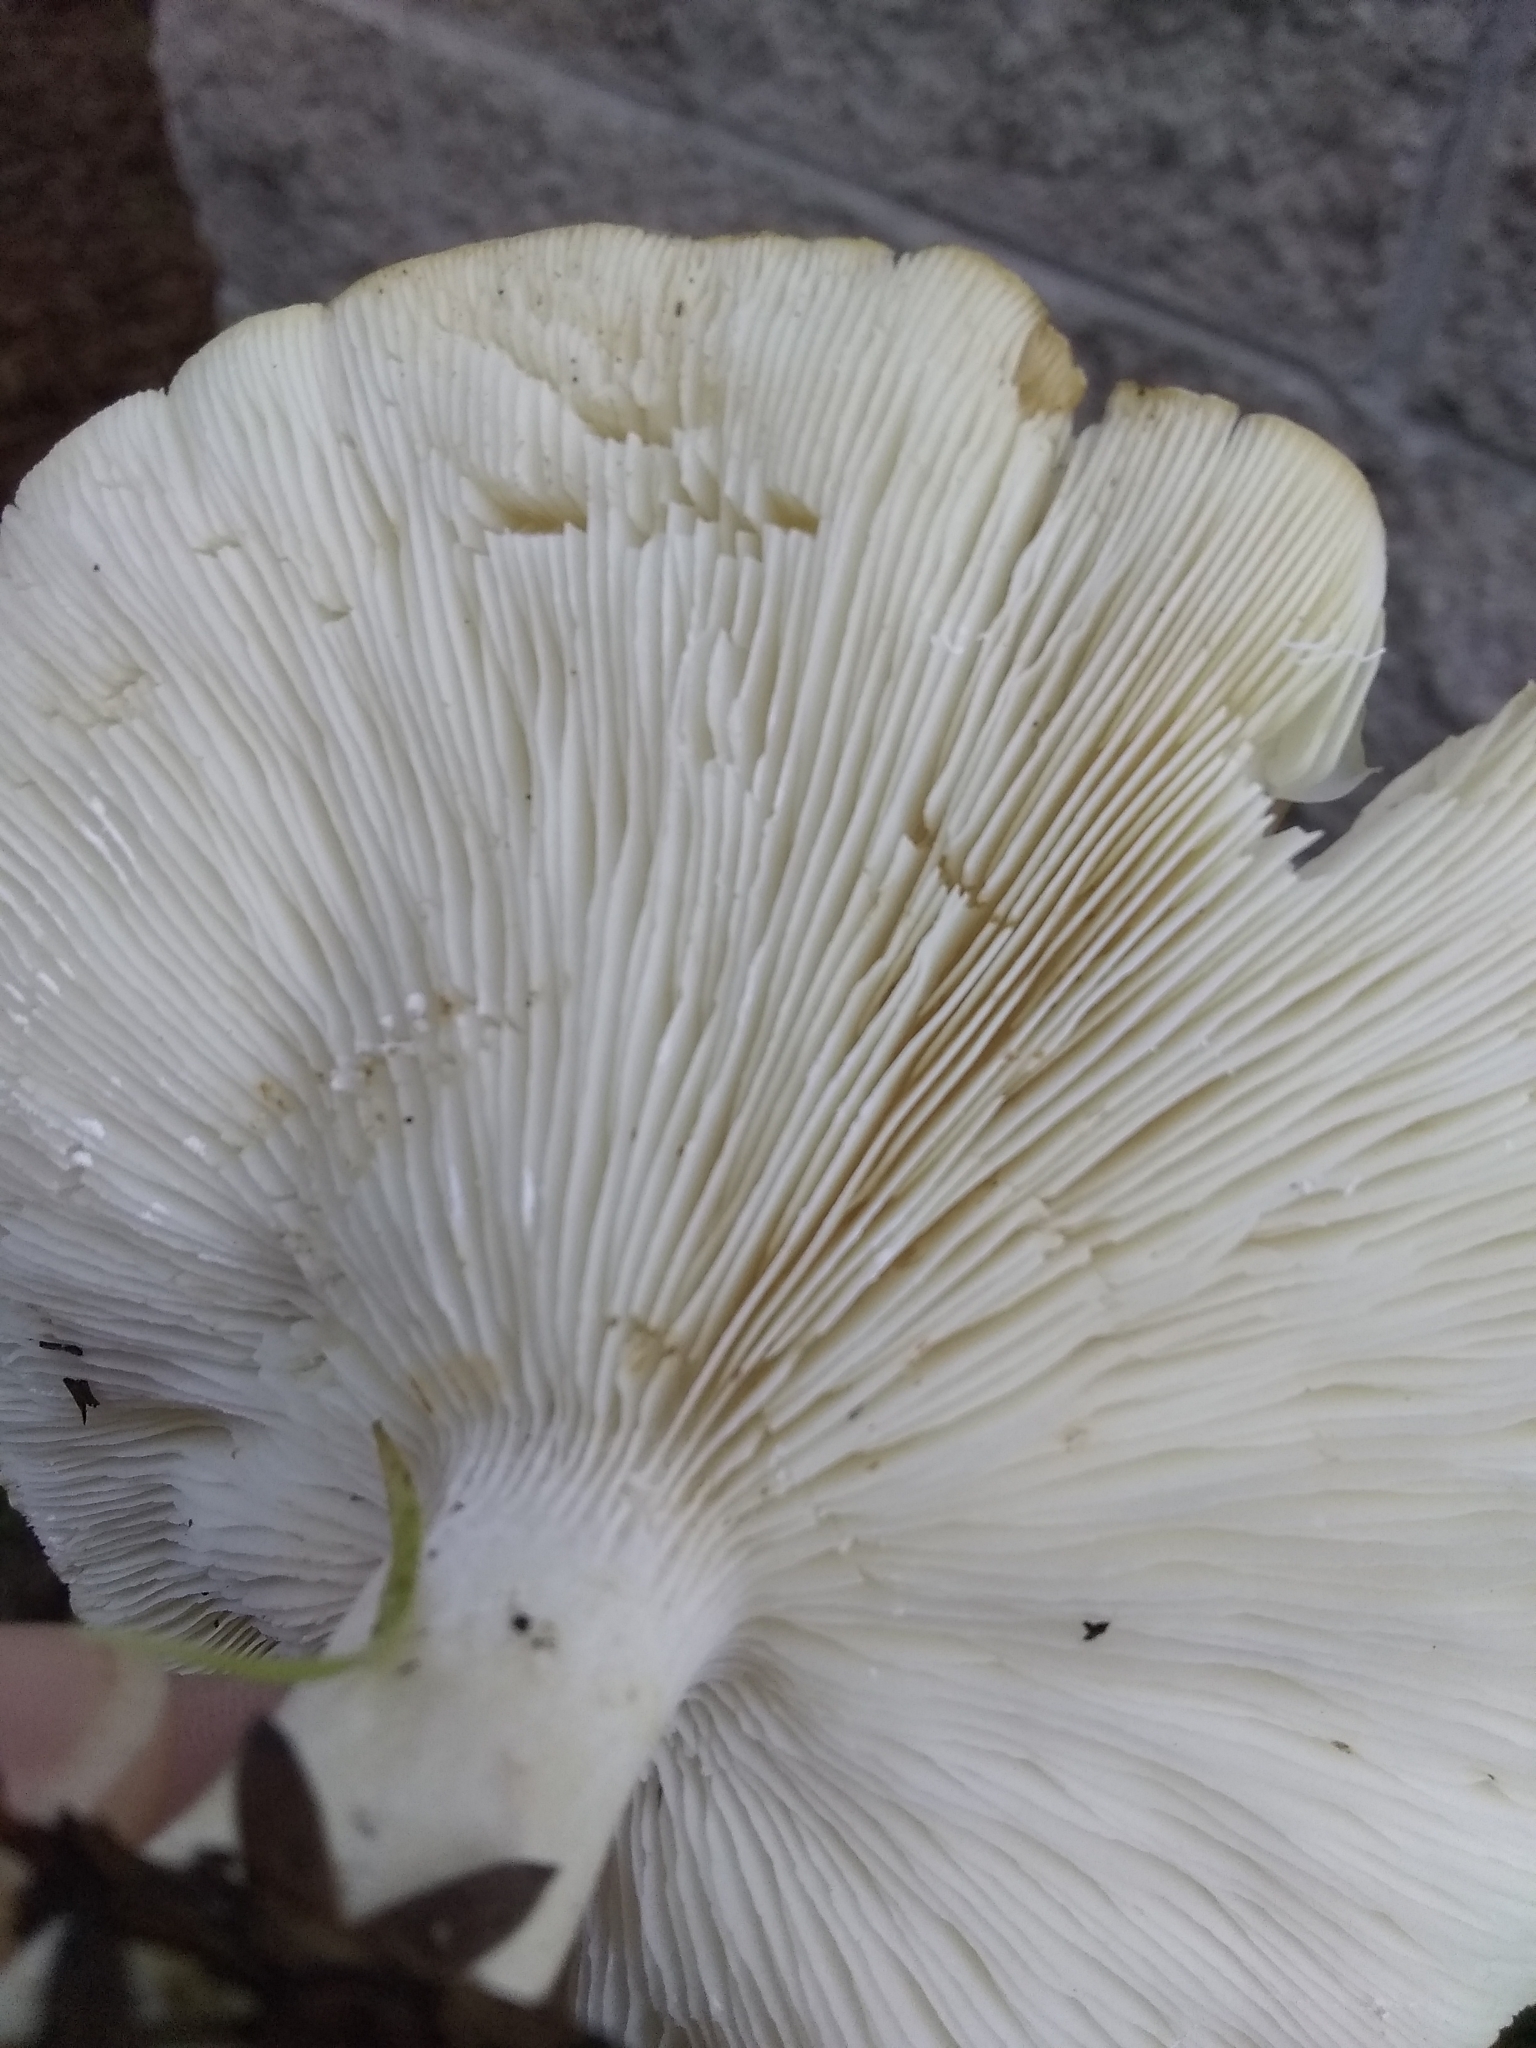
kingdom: Fungi
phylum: Basidiomycota
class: Agaricomycetes
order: Agaricales
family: Tricholomataceae
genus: Leucopaxillus
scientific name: Leucopaxillus gentianeus
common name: Bitter funnel
